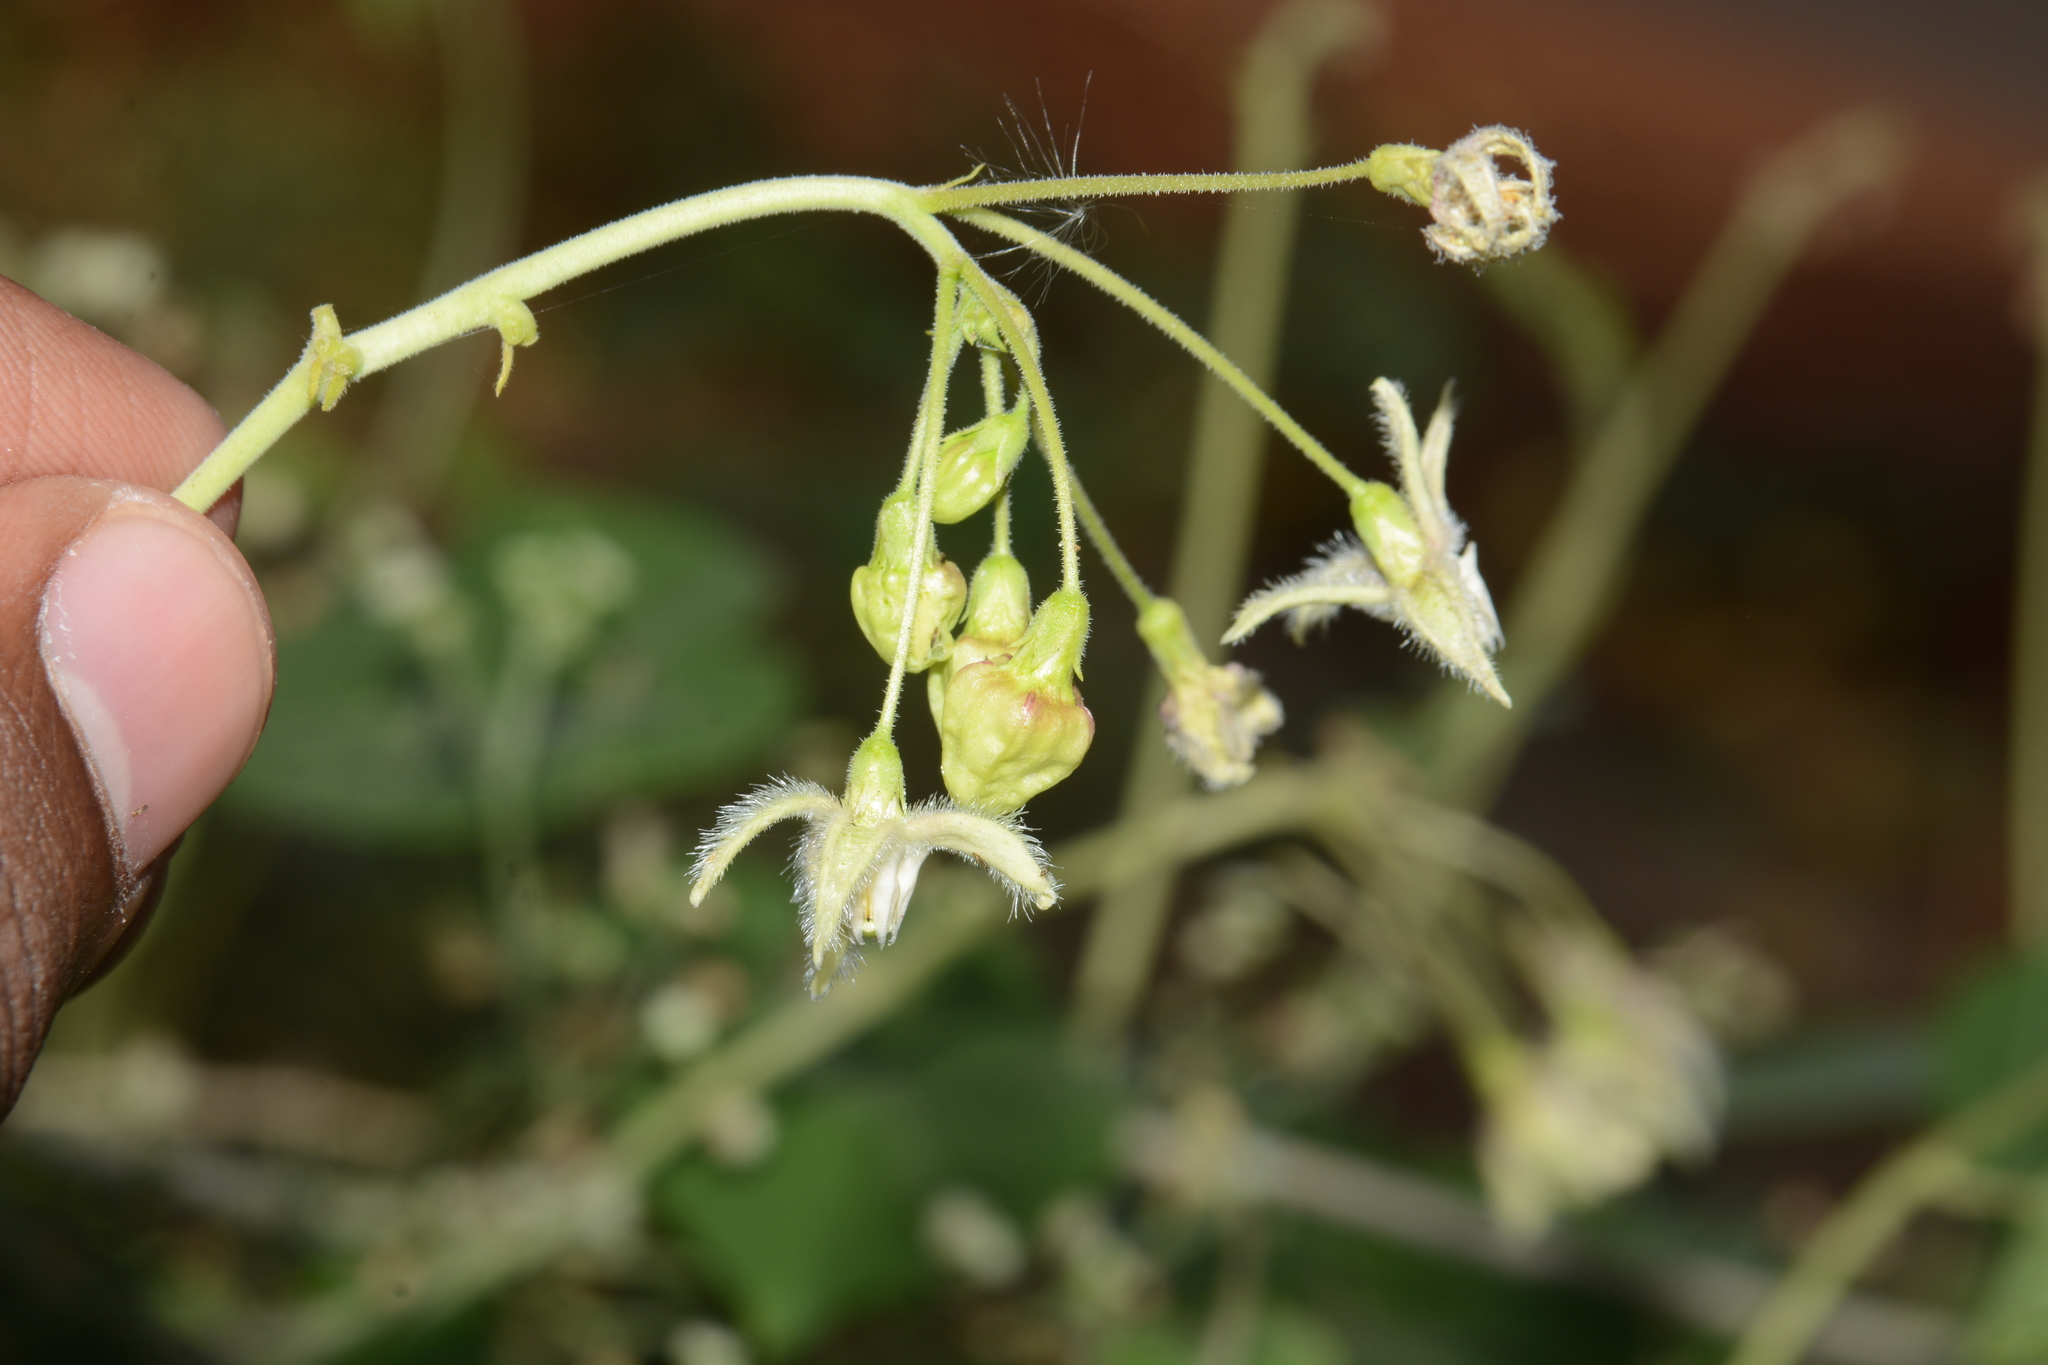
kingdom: Plantae
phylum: Tracheophyta
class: Magnoliopsida
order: Gentianales
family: Apocynaceae
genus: Pergularia
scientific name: Pergularia daemia
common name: Trellis-vine
